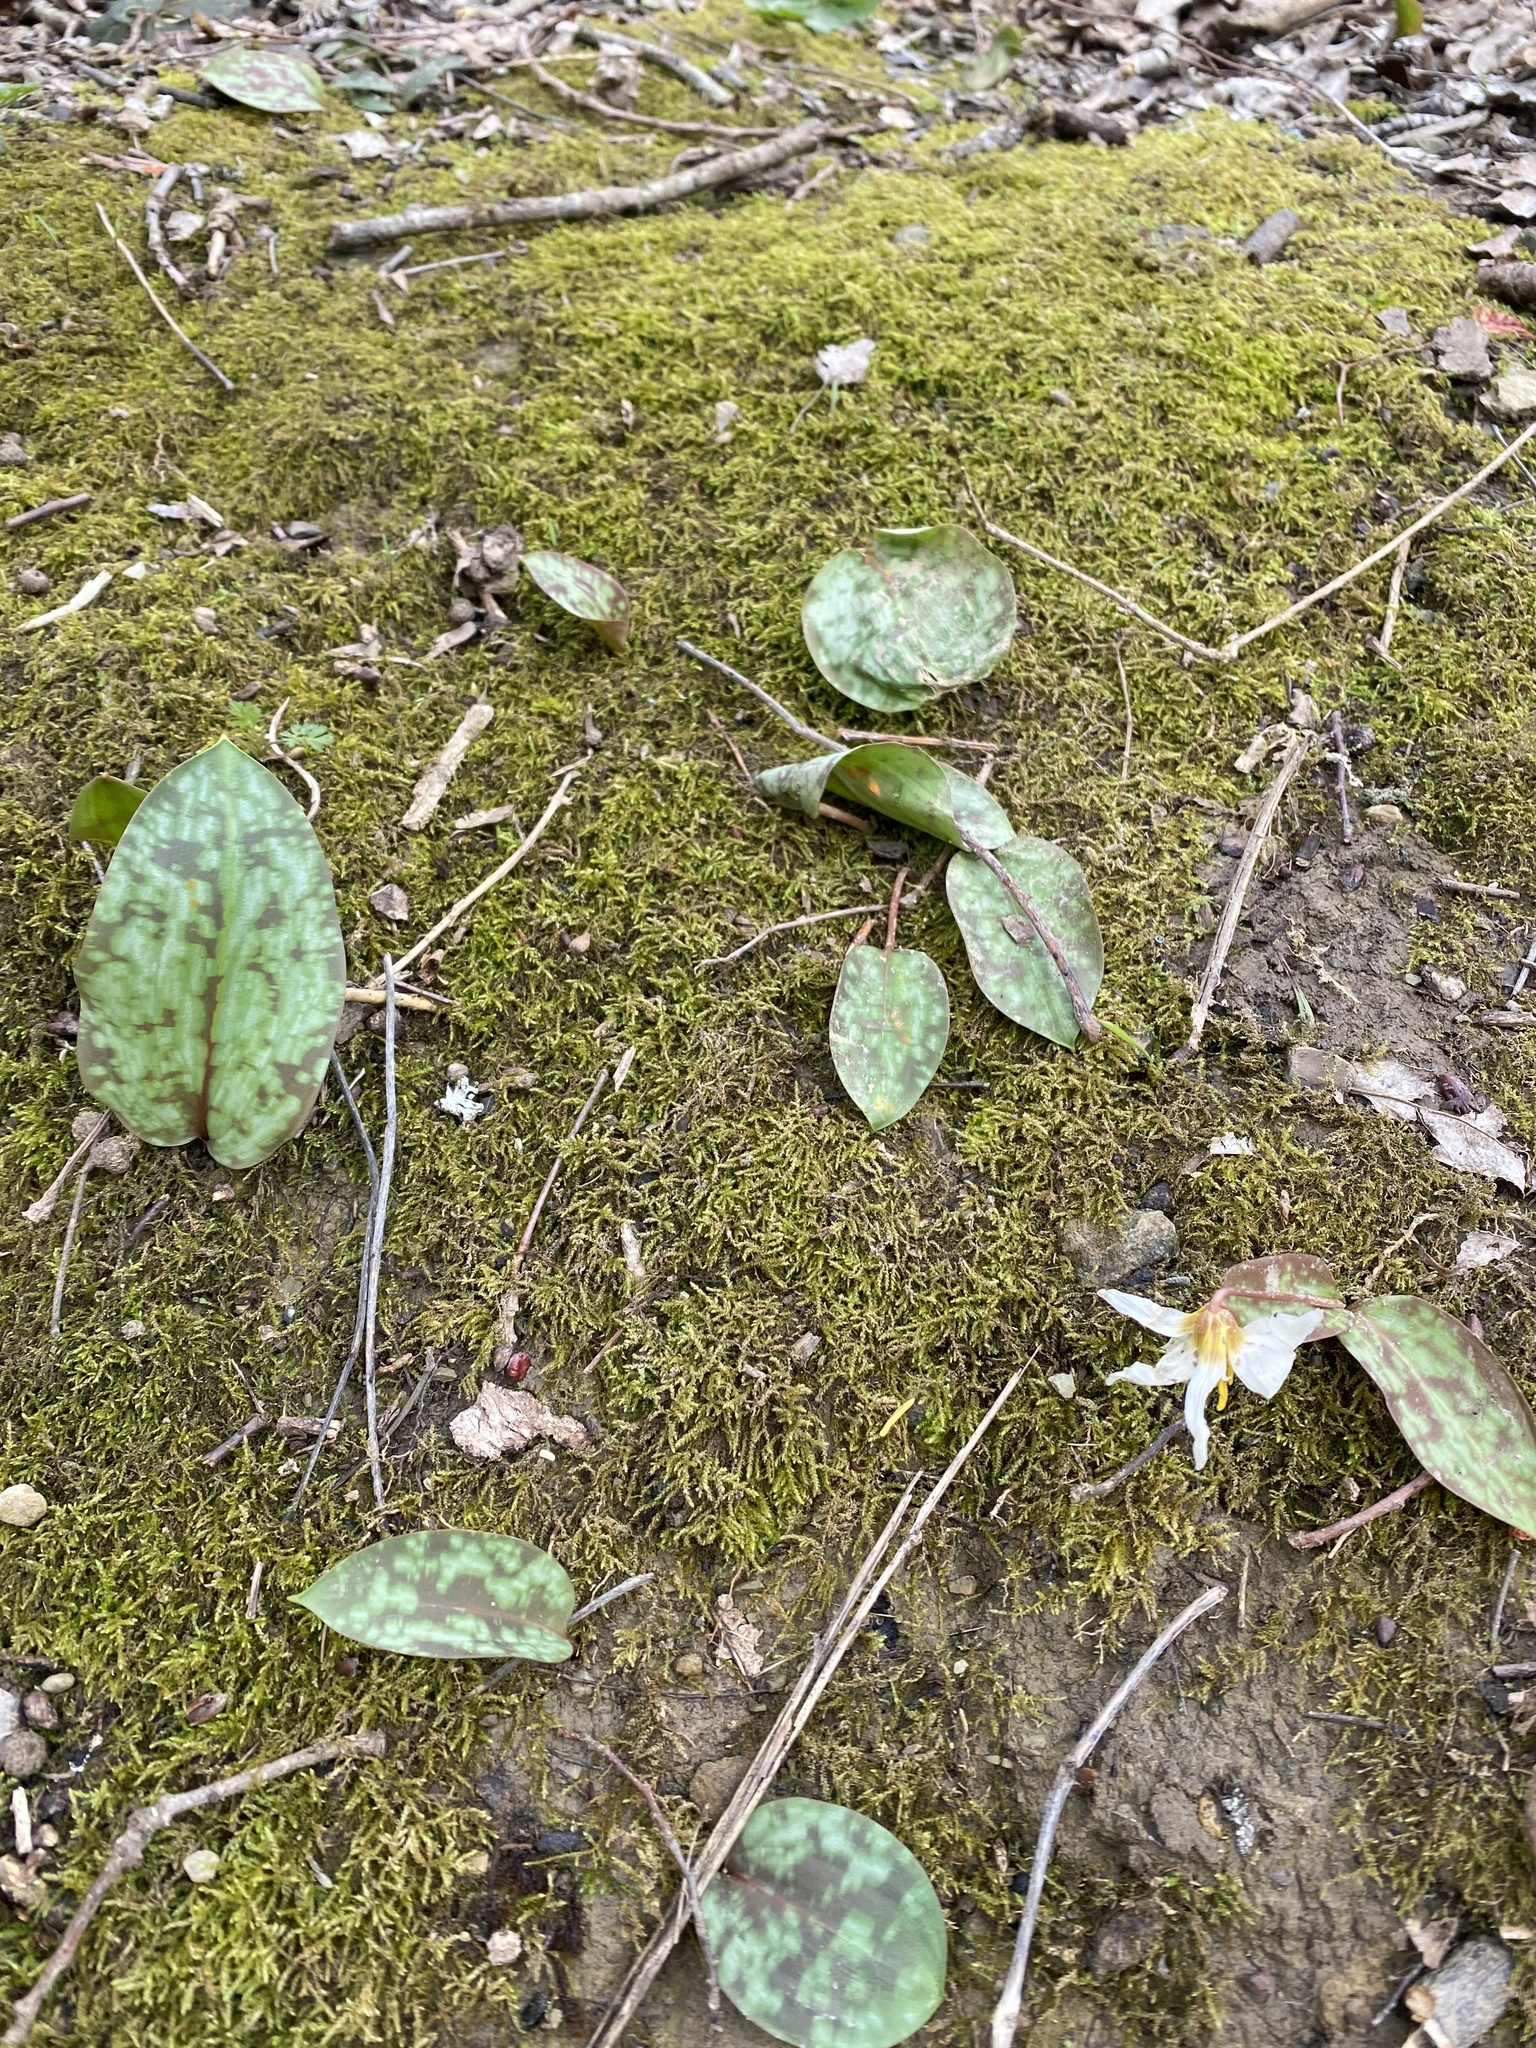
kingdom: Plantae
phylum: Tracheophyta
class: Liliopsida
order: Liliales
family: Liliaceae
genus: Erythronium
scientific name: Erythronium caucasicum
